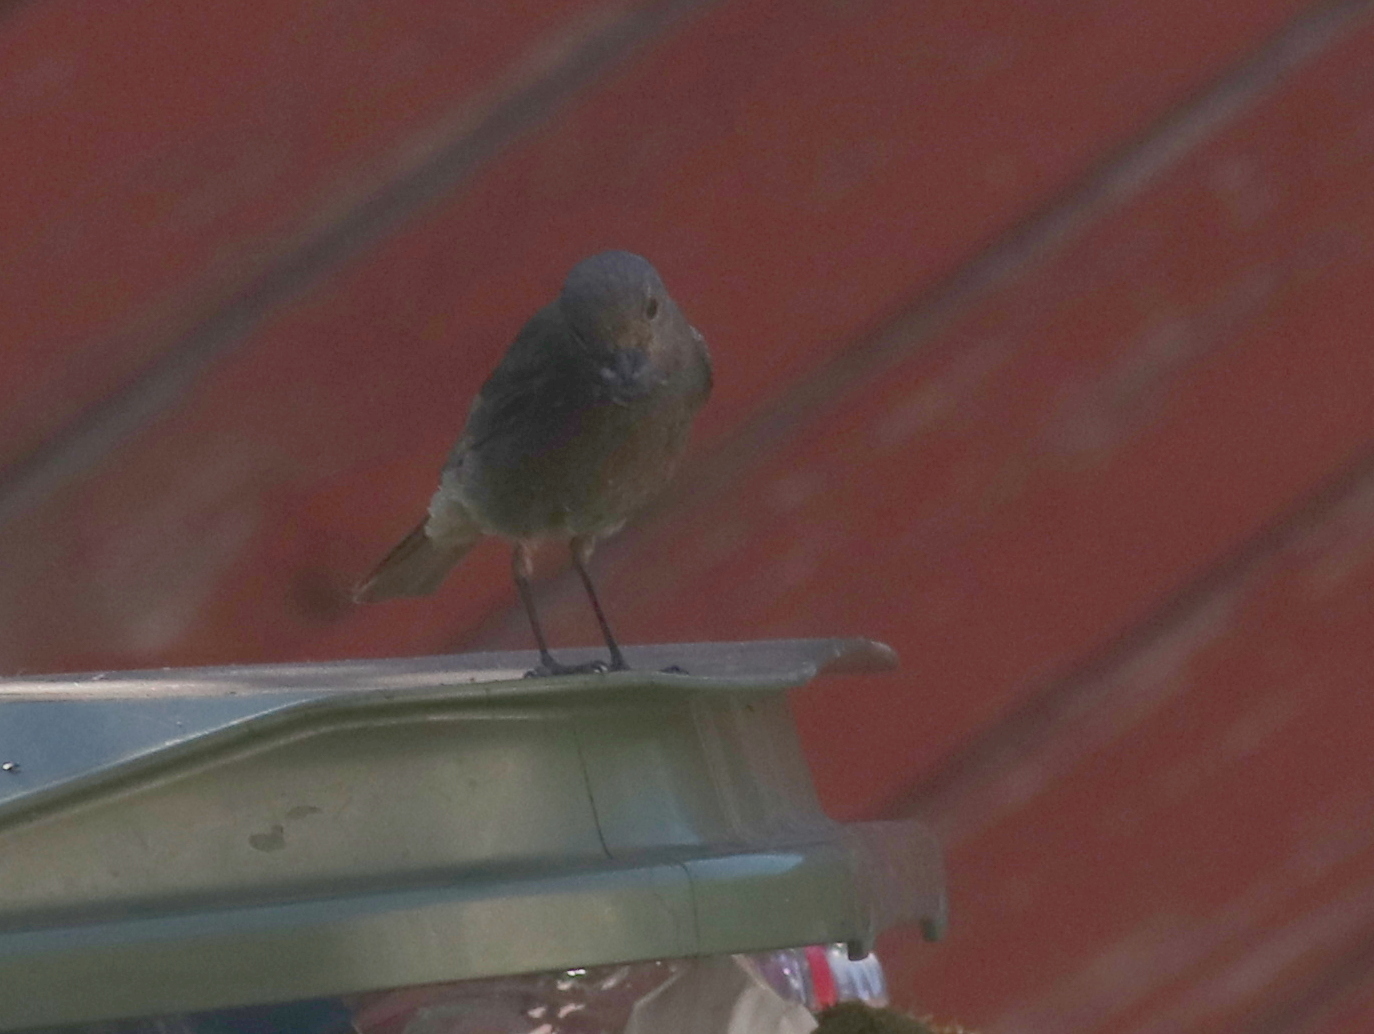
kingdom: Animalia
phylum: Chordata
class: Aves
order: Passeriformes
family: Muscicapidae
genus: Phoenicurus
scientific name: Phoenicurus ochruros
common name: Black redstart
